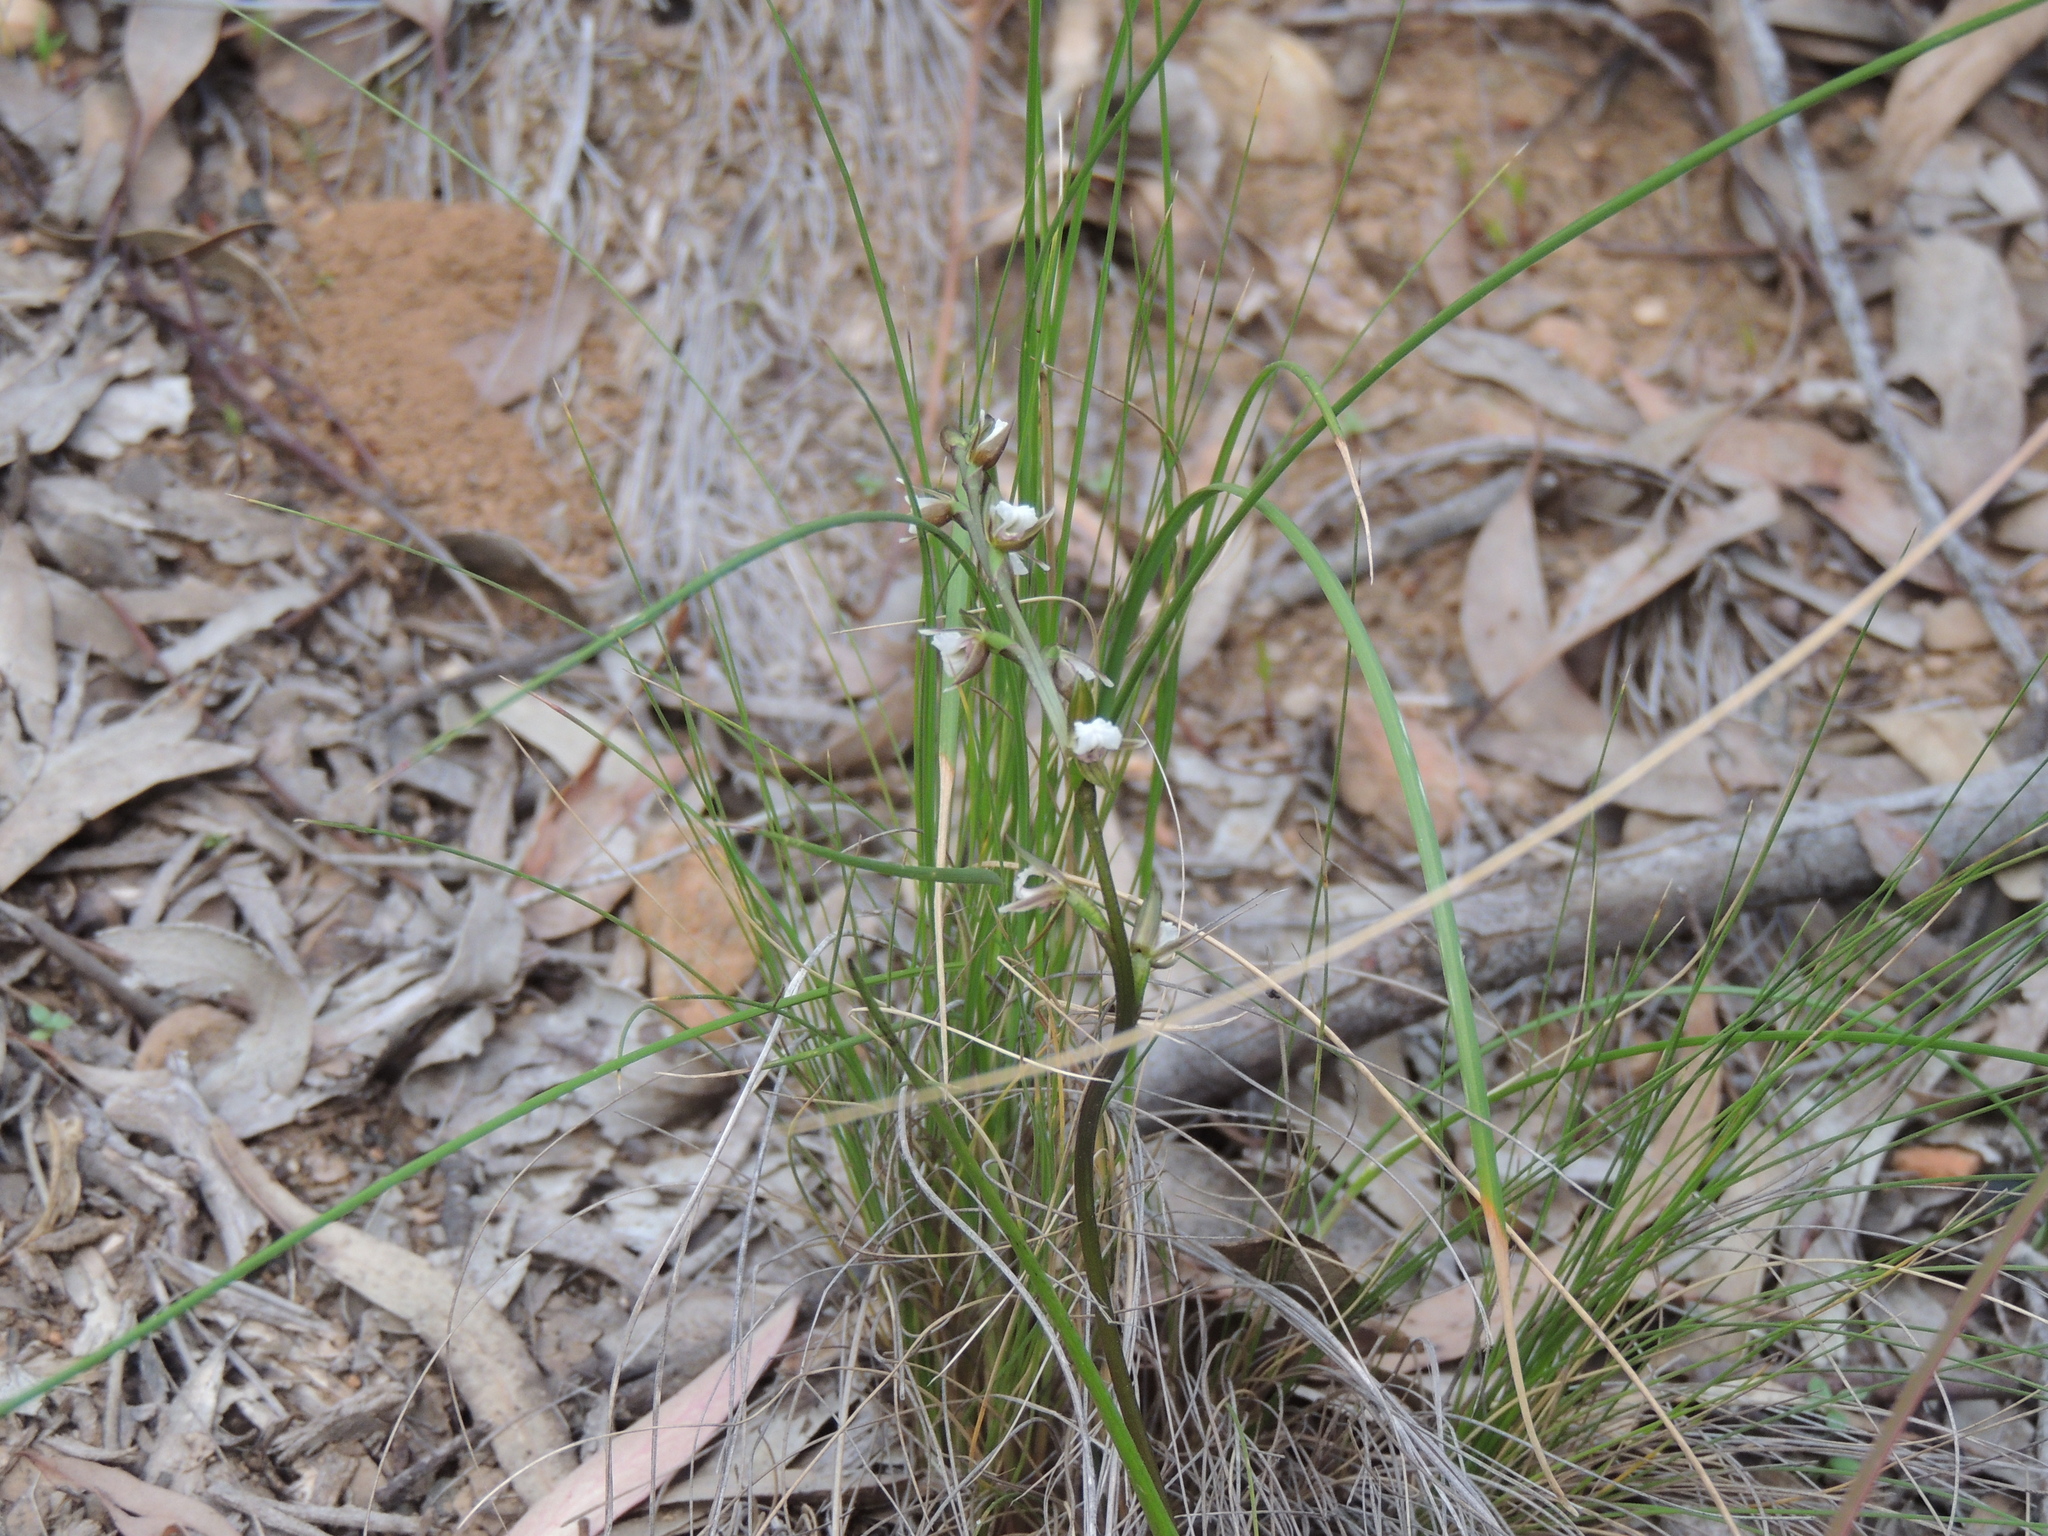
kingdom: Plantae
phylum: Tracheophyta
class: Liliopsida
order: Asparagales
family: Orchidaceae
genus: Prasophyllum
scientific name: Prasophyllum brevilabre
